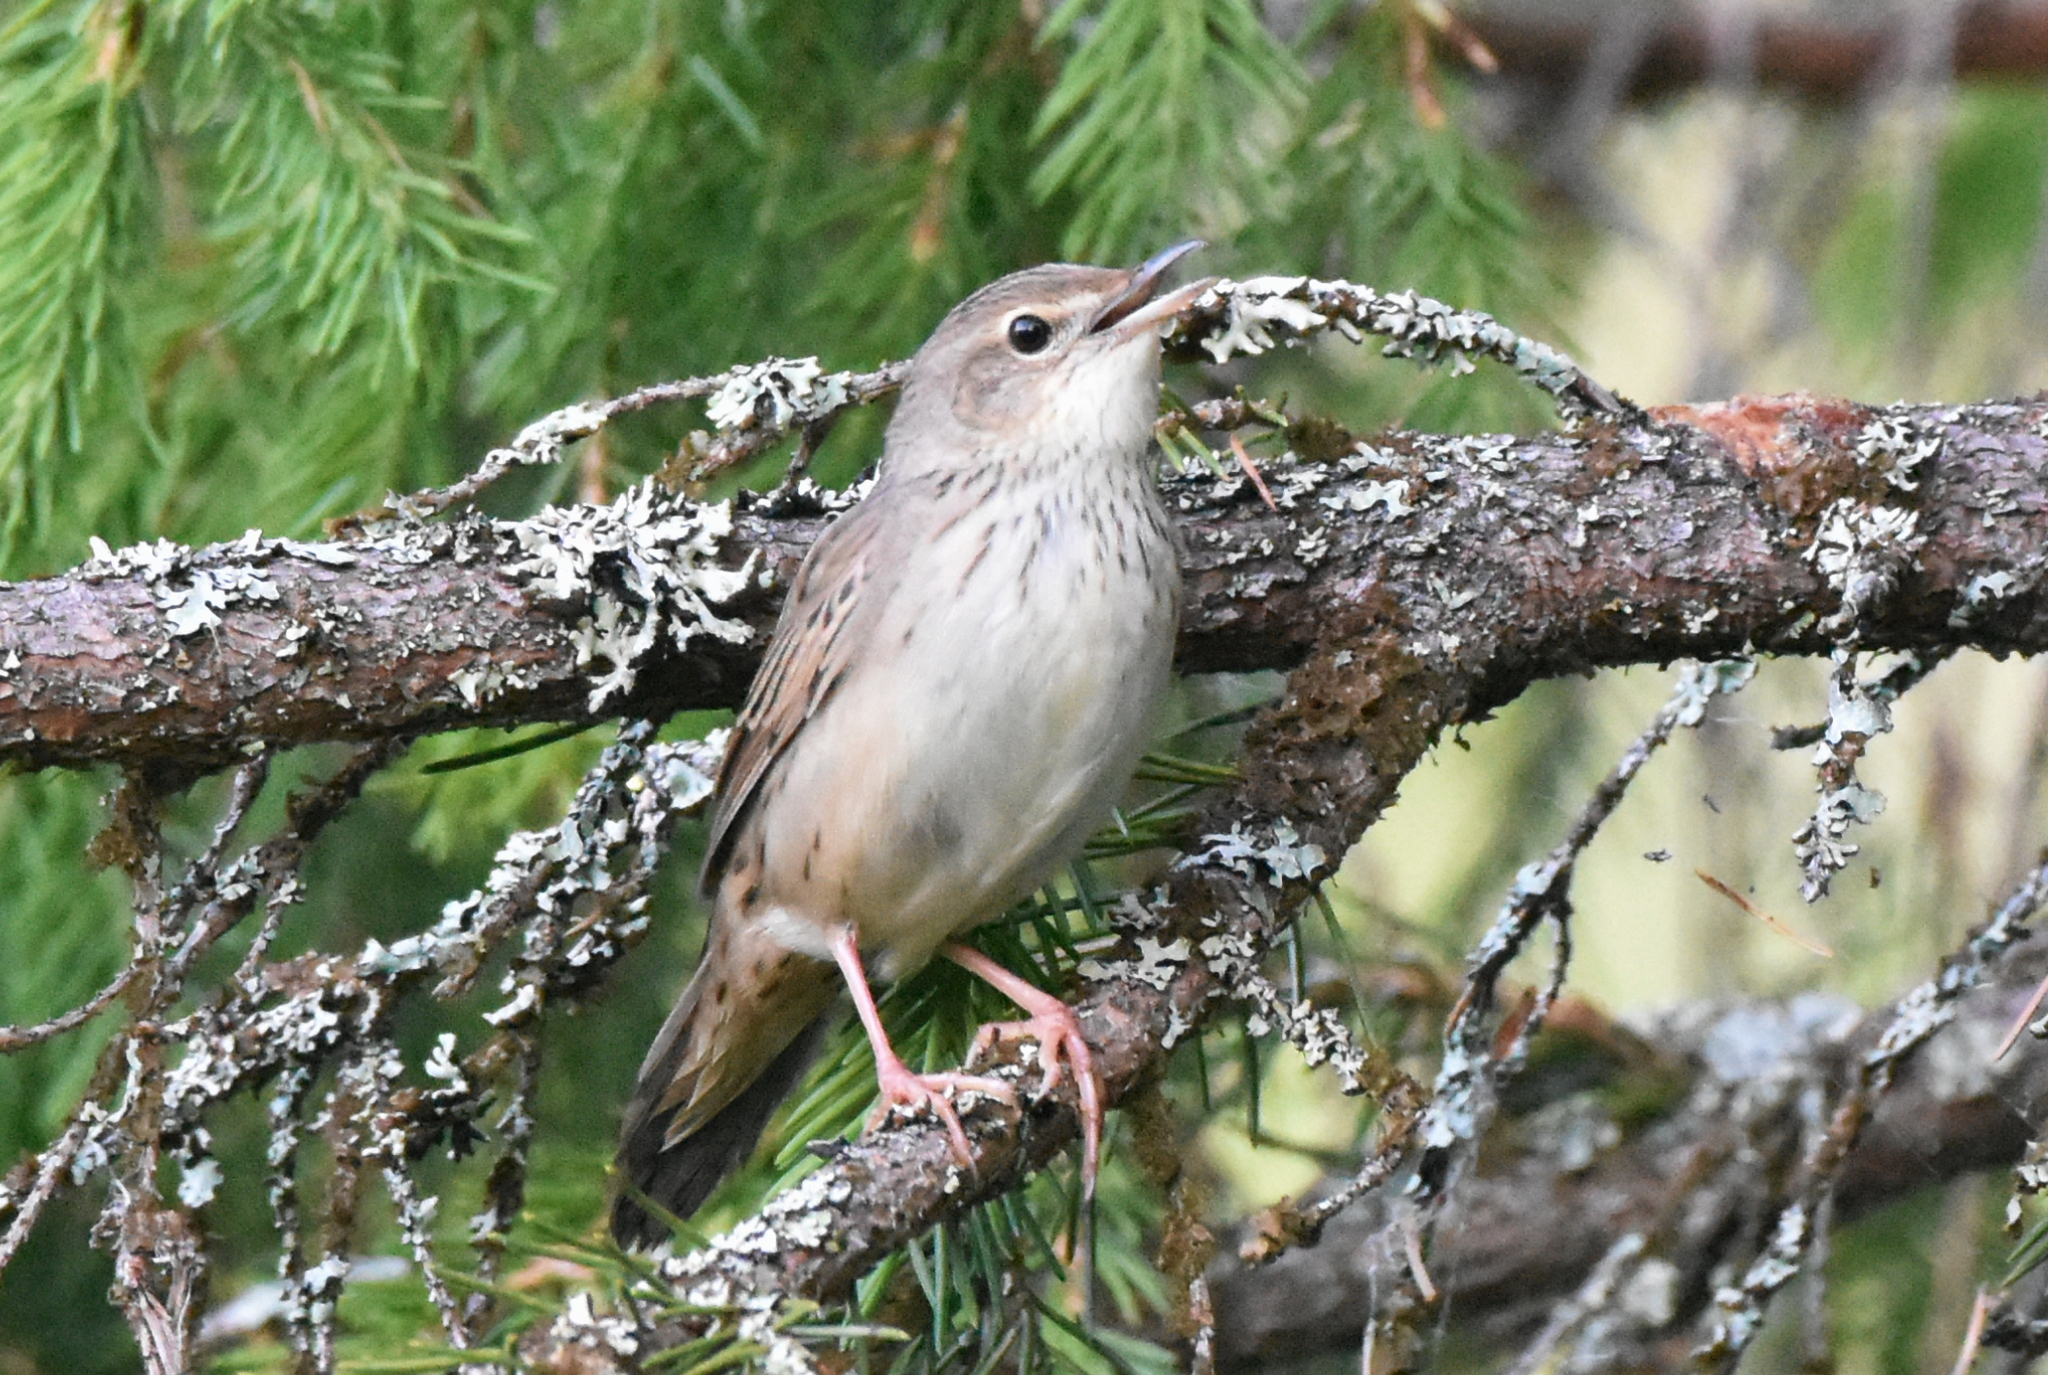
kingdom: Animalia
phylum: Chordata
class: Aves
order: Passeriformes
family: Locustellidae
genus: Locustella
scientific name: Locustella lanceolata
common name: Lanceolated warbler
